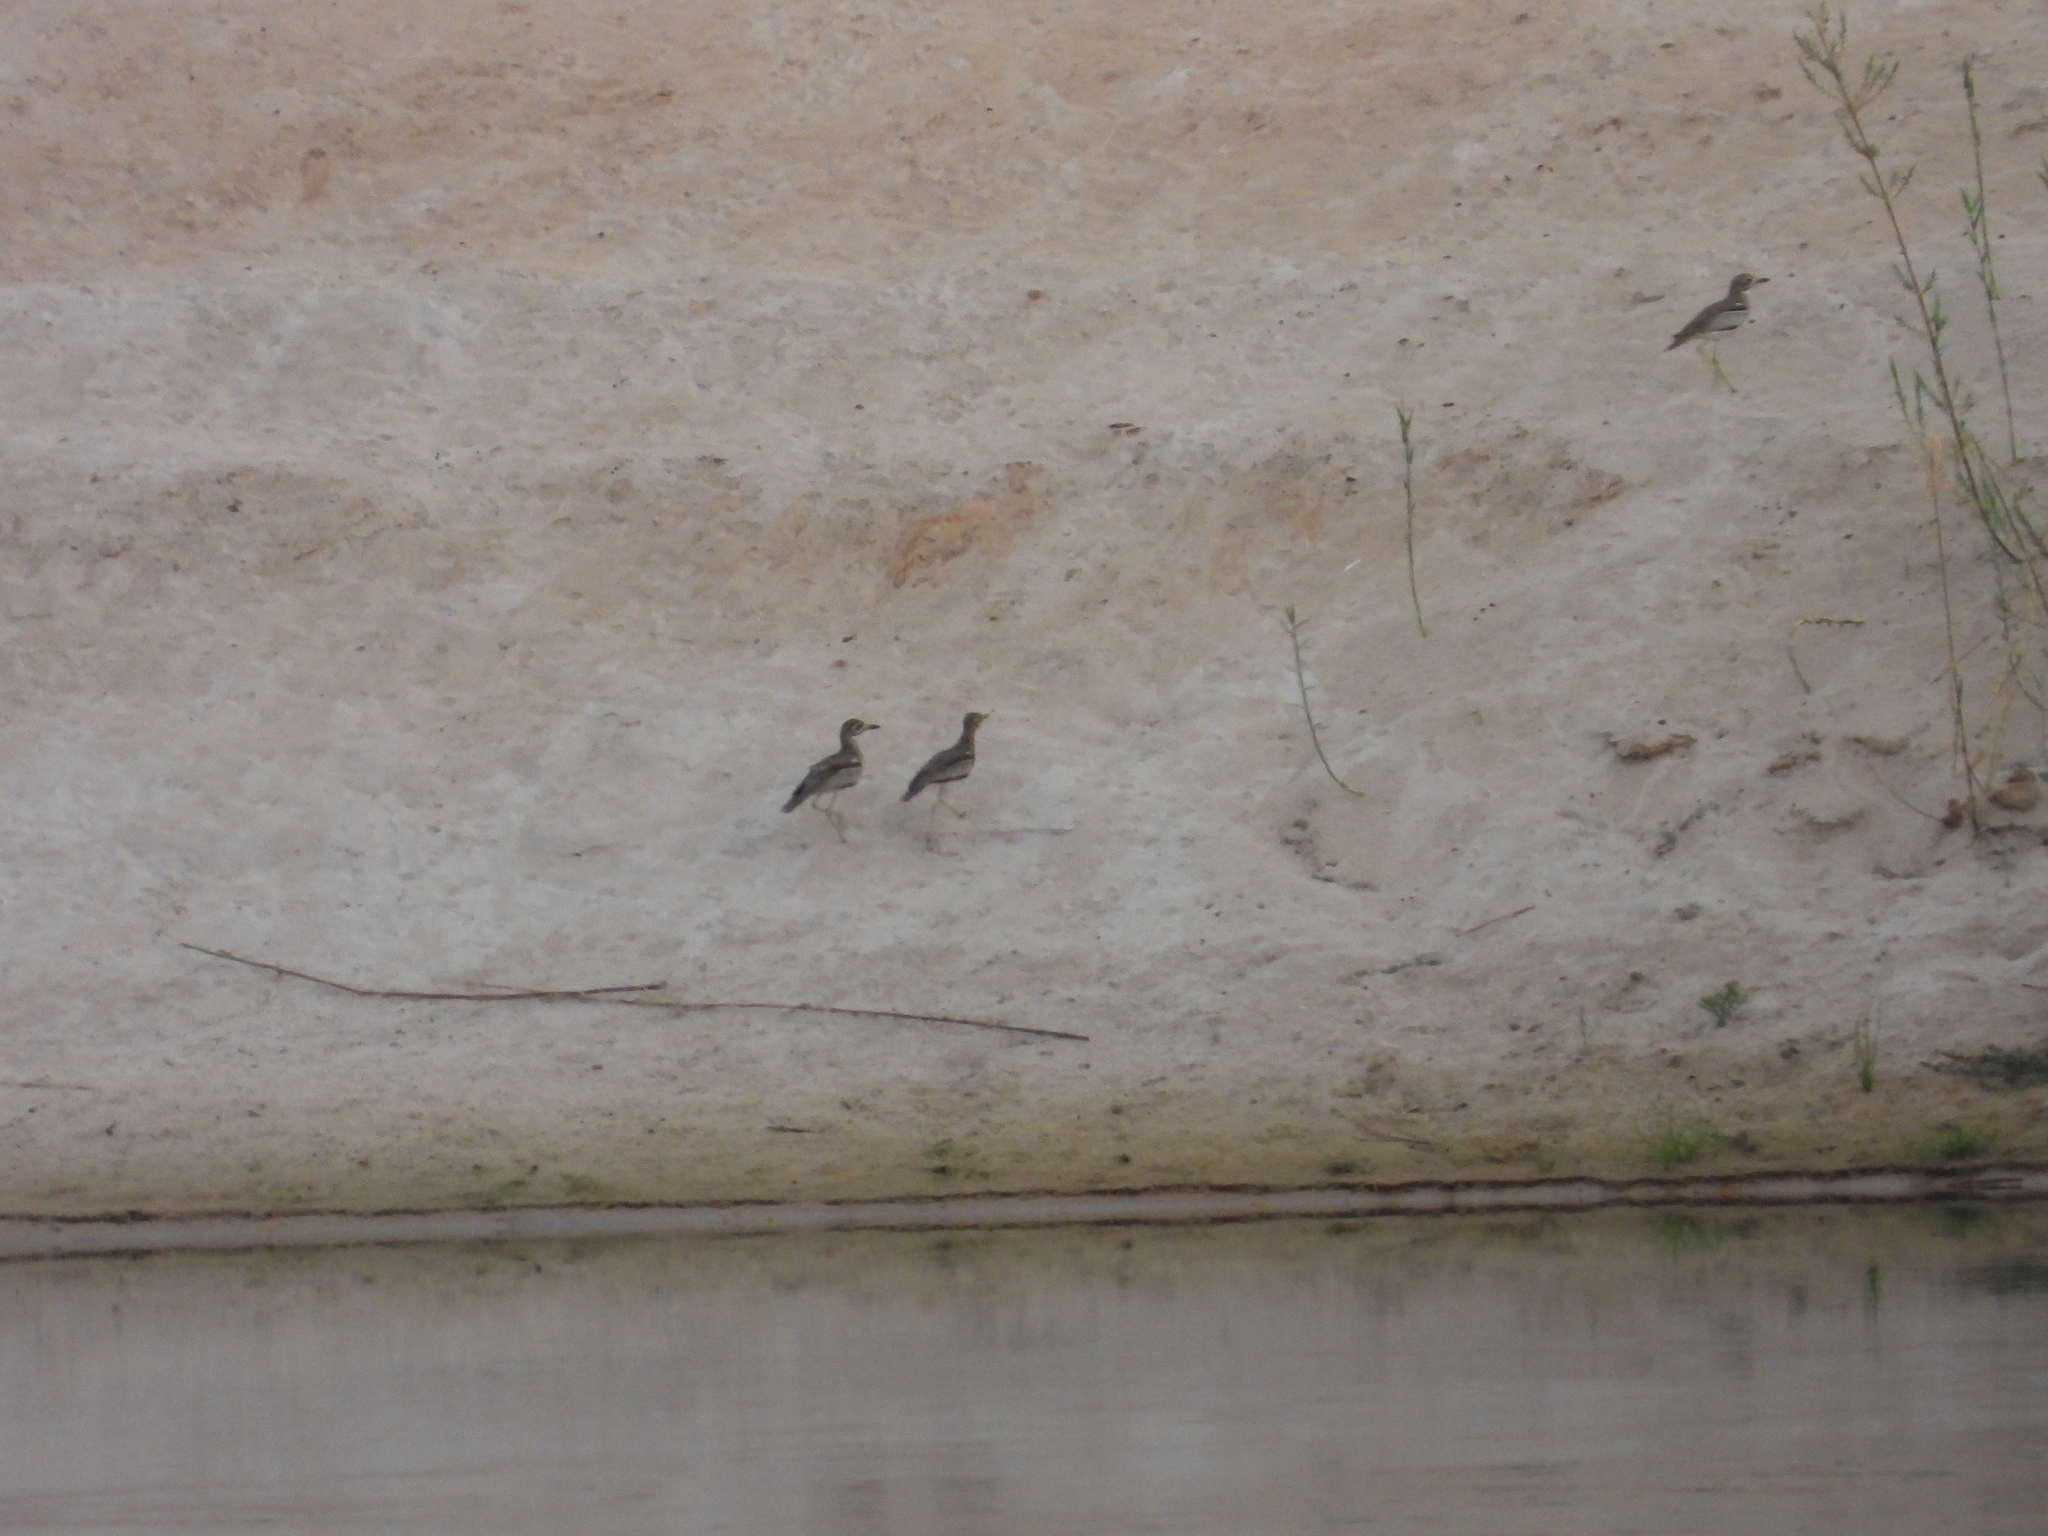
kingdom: Animalia
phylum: Chordata
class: Aves
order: Charadriiformes
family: Burhinidae
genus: Burhinus
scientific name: Burhinus vermiculatus
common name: Water thick-knee
